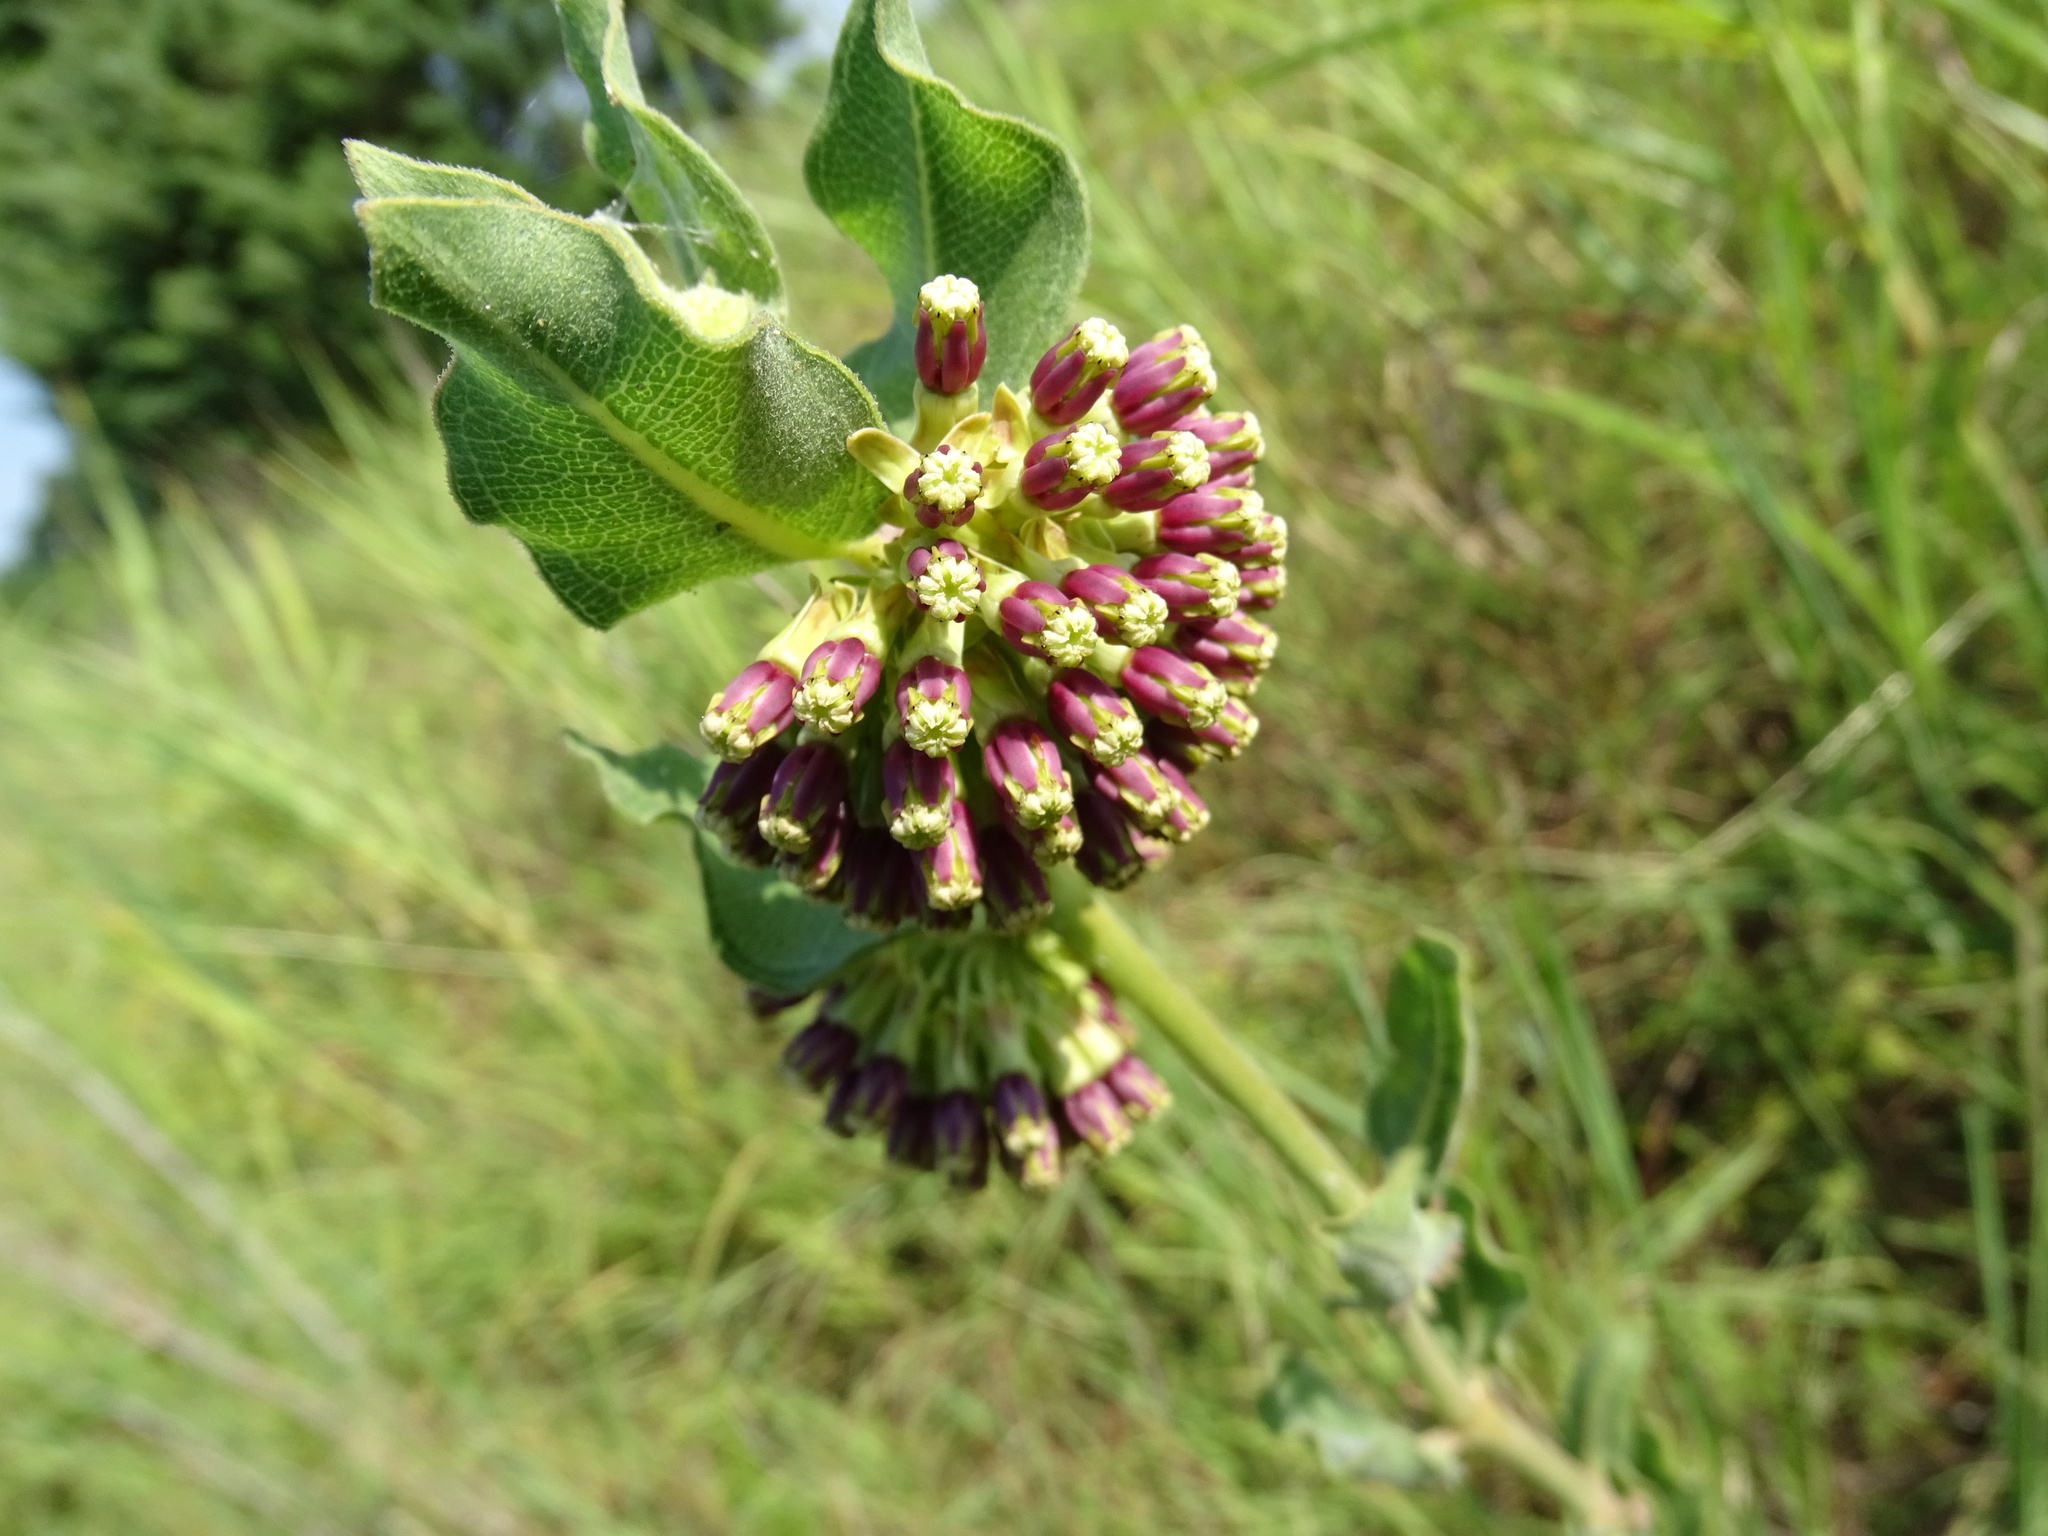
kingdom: Plantae
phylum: Tracheophyta
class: Magnoliopsida
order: Gentianales
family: Apocynaceae
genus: Asclepias
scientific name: Asclepias viridiflora
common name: Green comet milkweed
